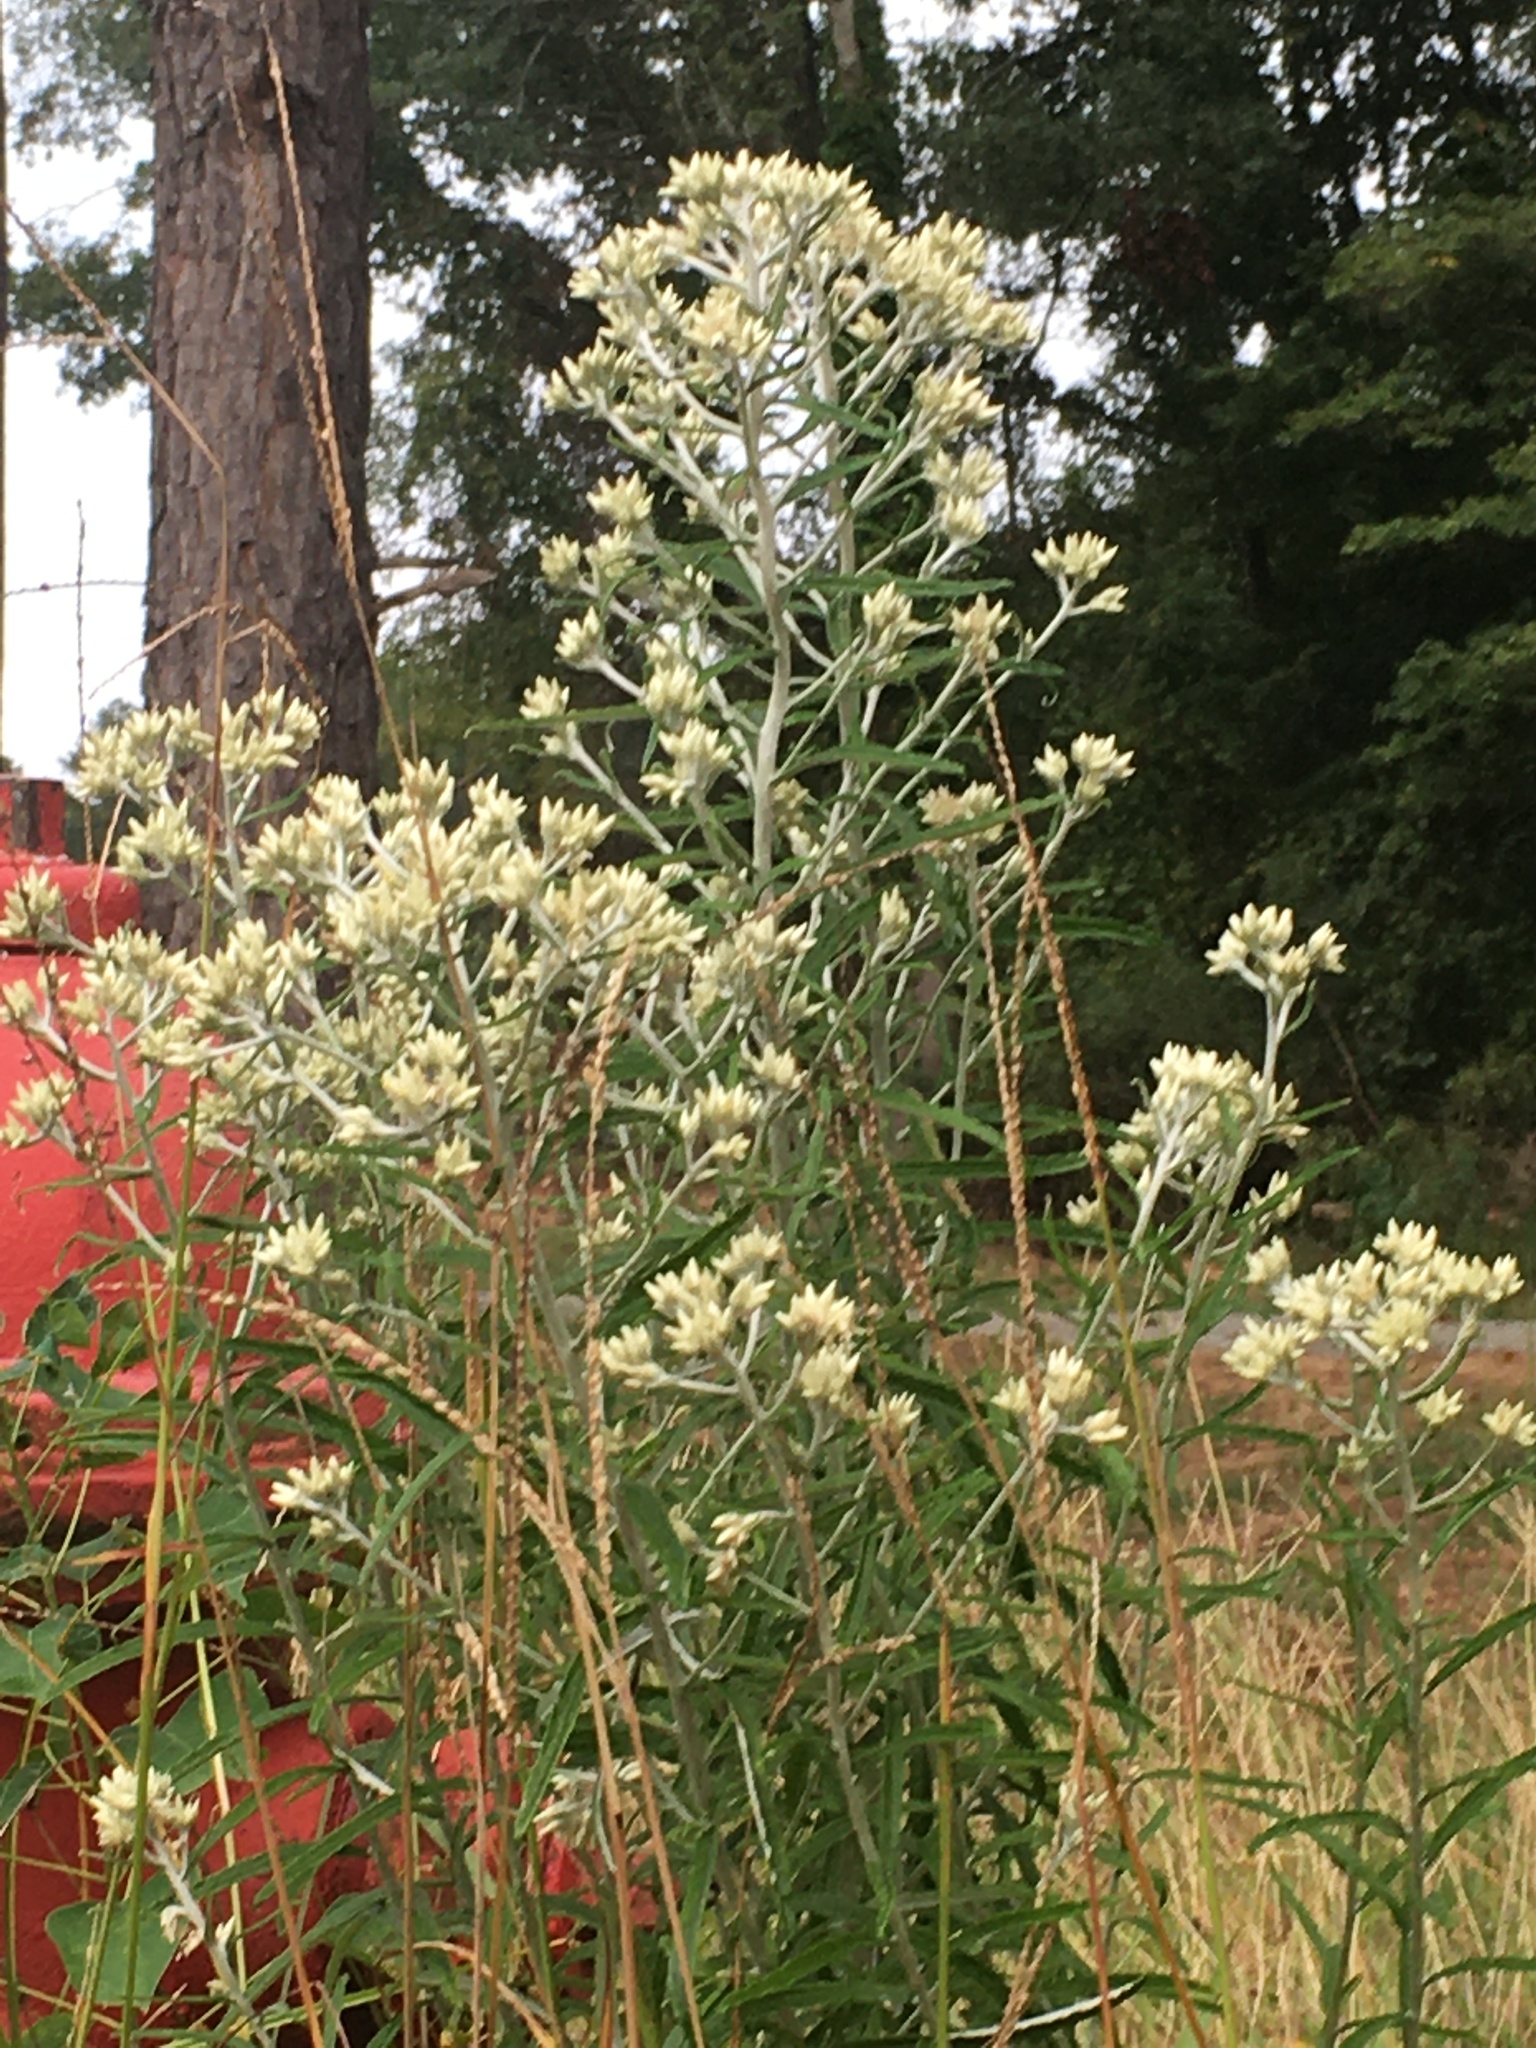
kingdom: Plantae
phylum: Tracheophyta
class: Magnoliopsida
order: Asterales
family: Asteraceae
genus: Pseudognaphalium
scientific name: Pseudognaphalium obtusifolium
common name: Eastern rabbit-tobacco
